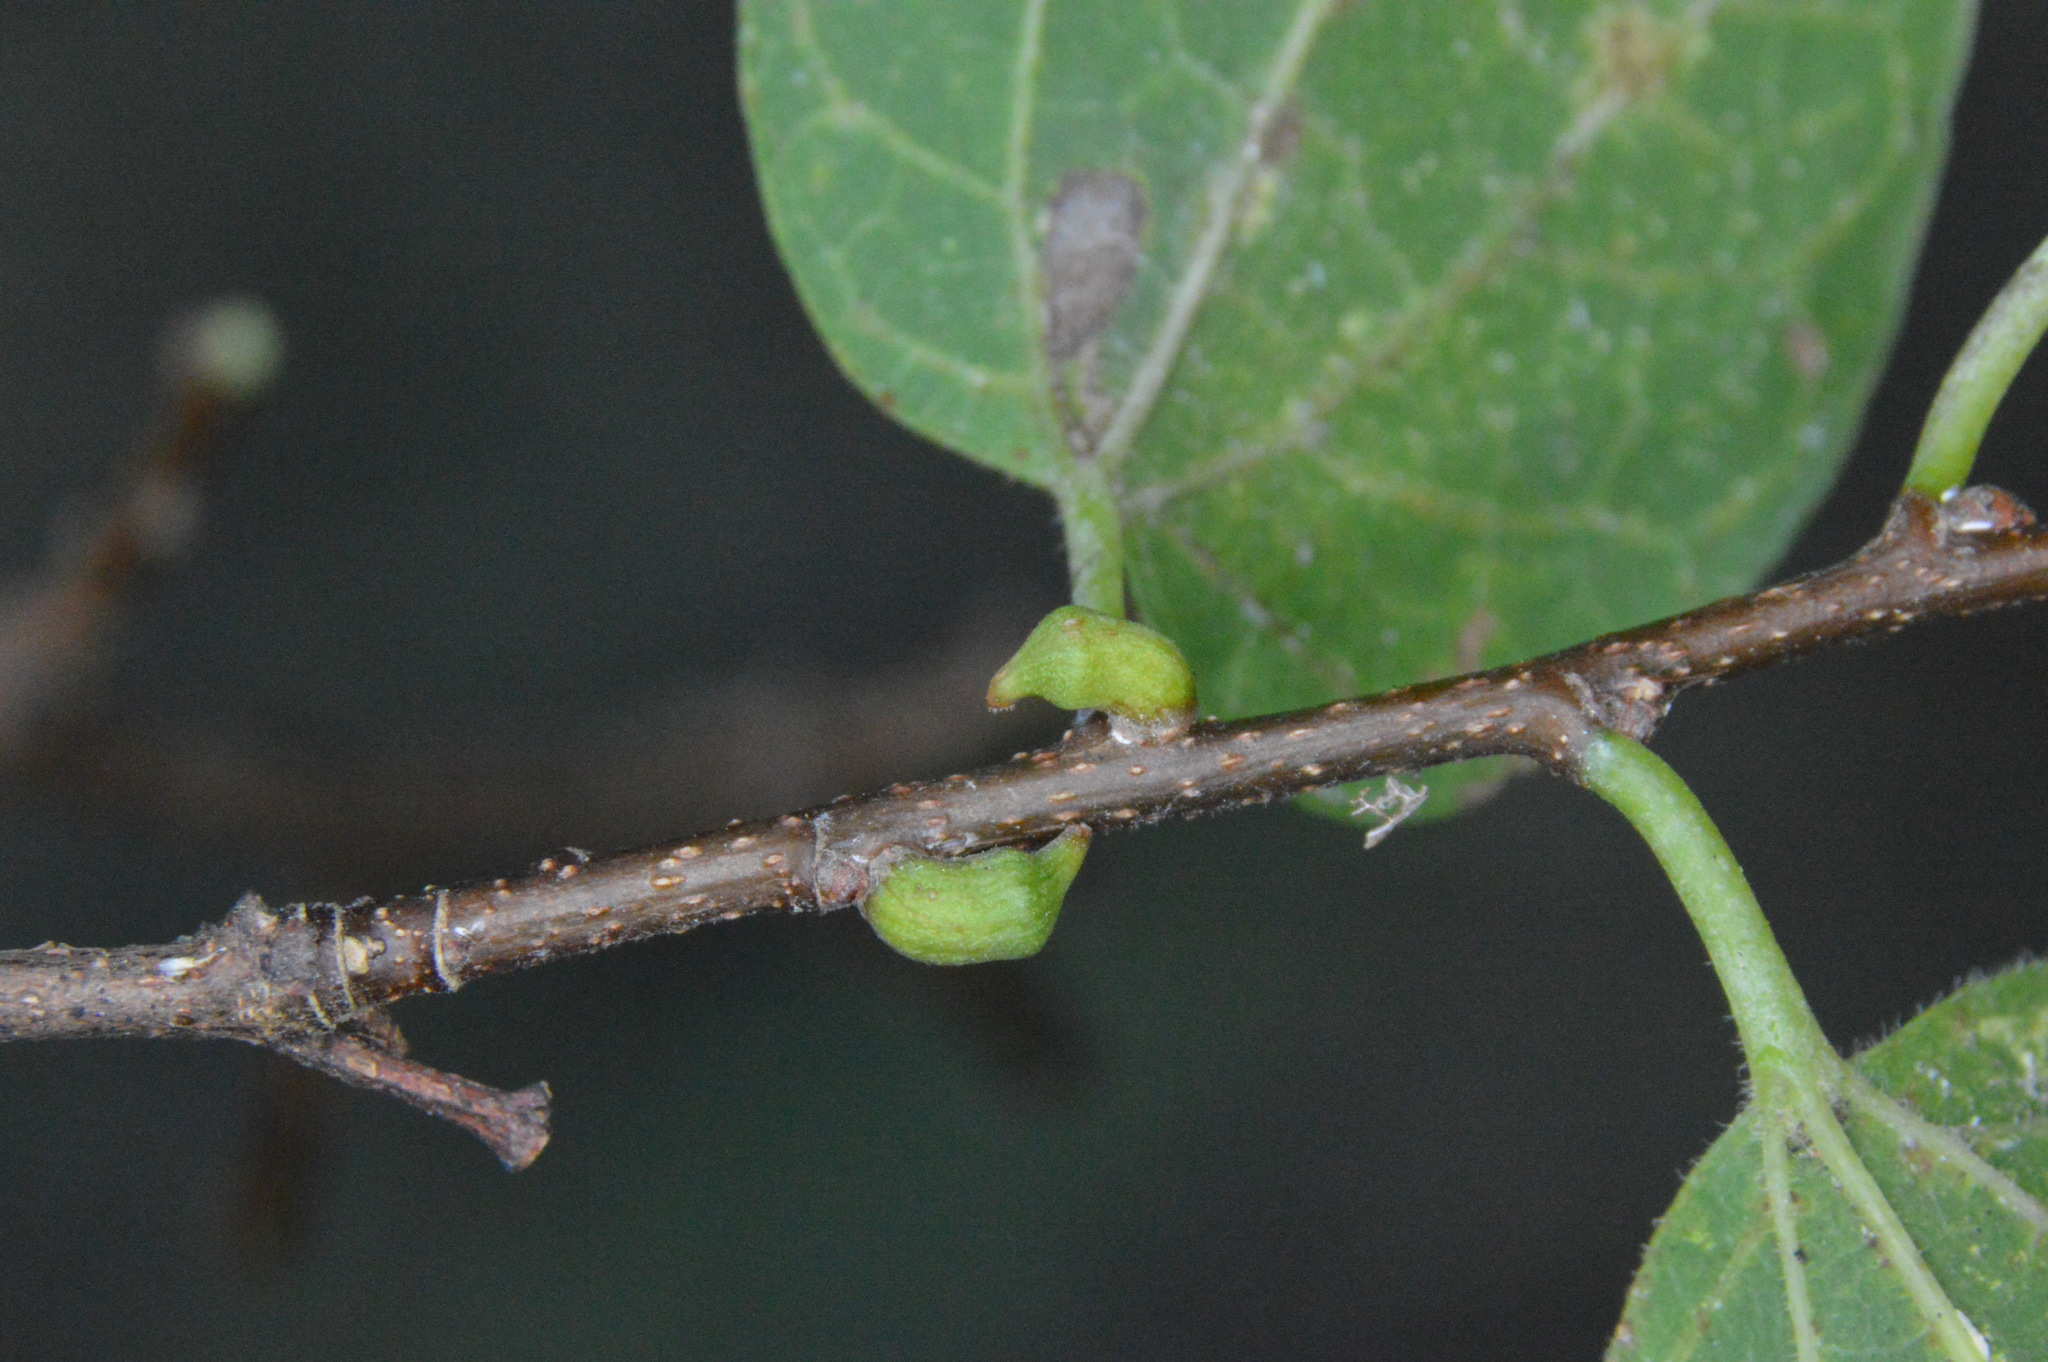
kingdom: Animalia
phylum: Arthropoda
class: Insecta
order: Diptera
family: Cecidomyiidae
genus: Celticecis
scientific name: Celticecis ramicola
